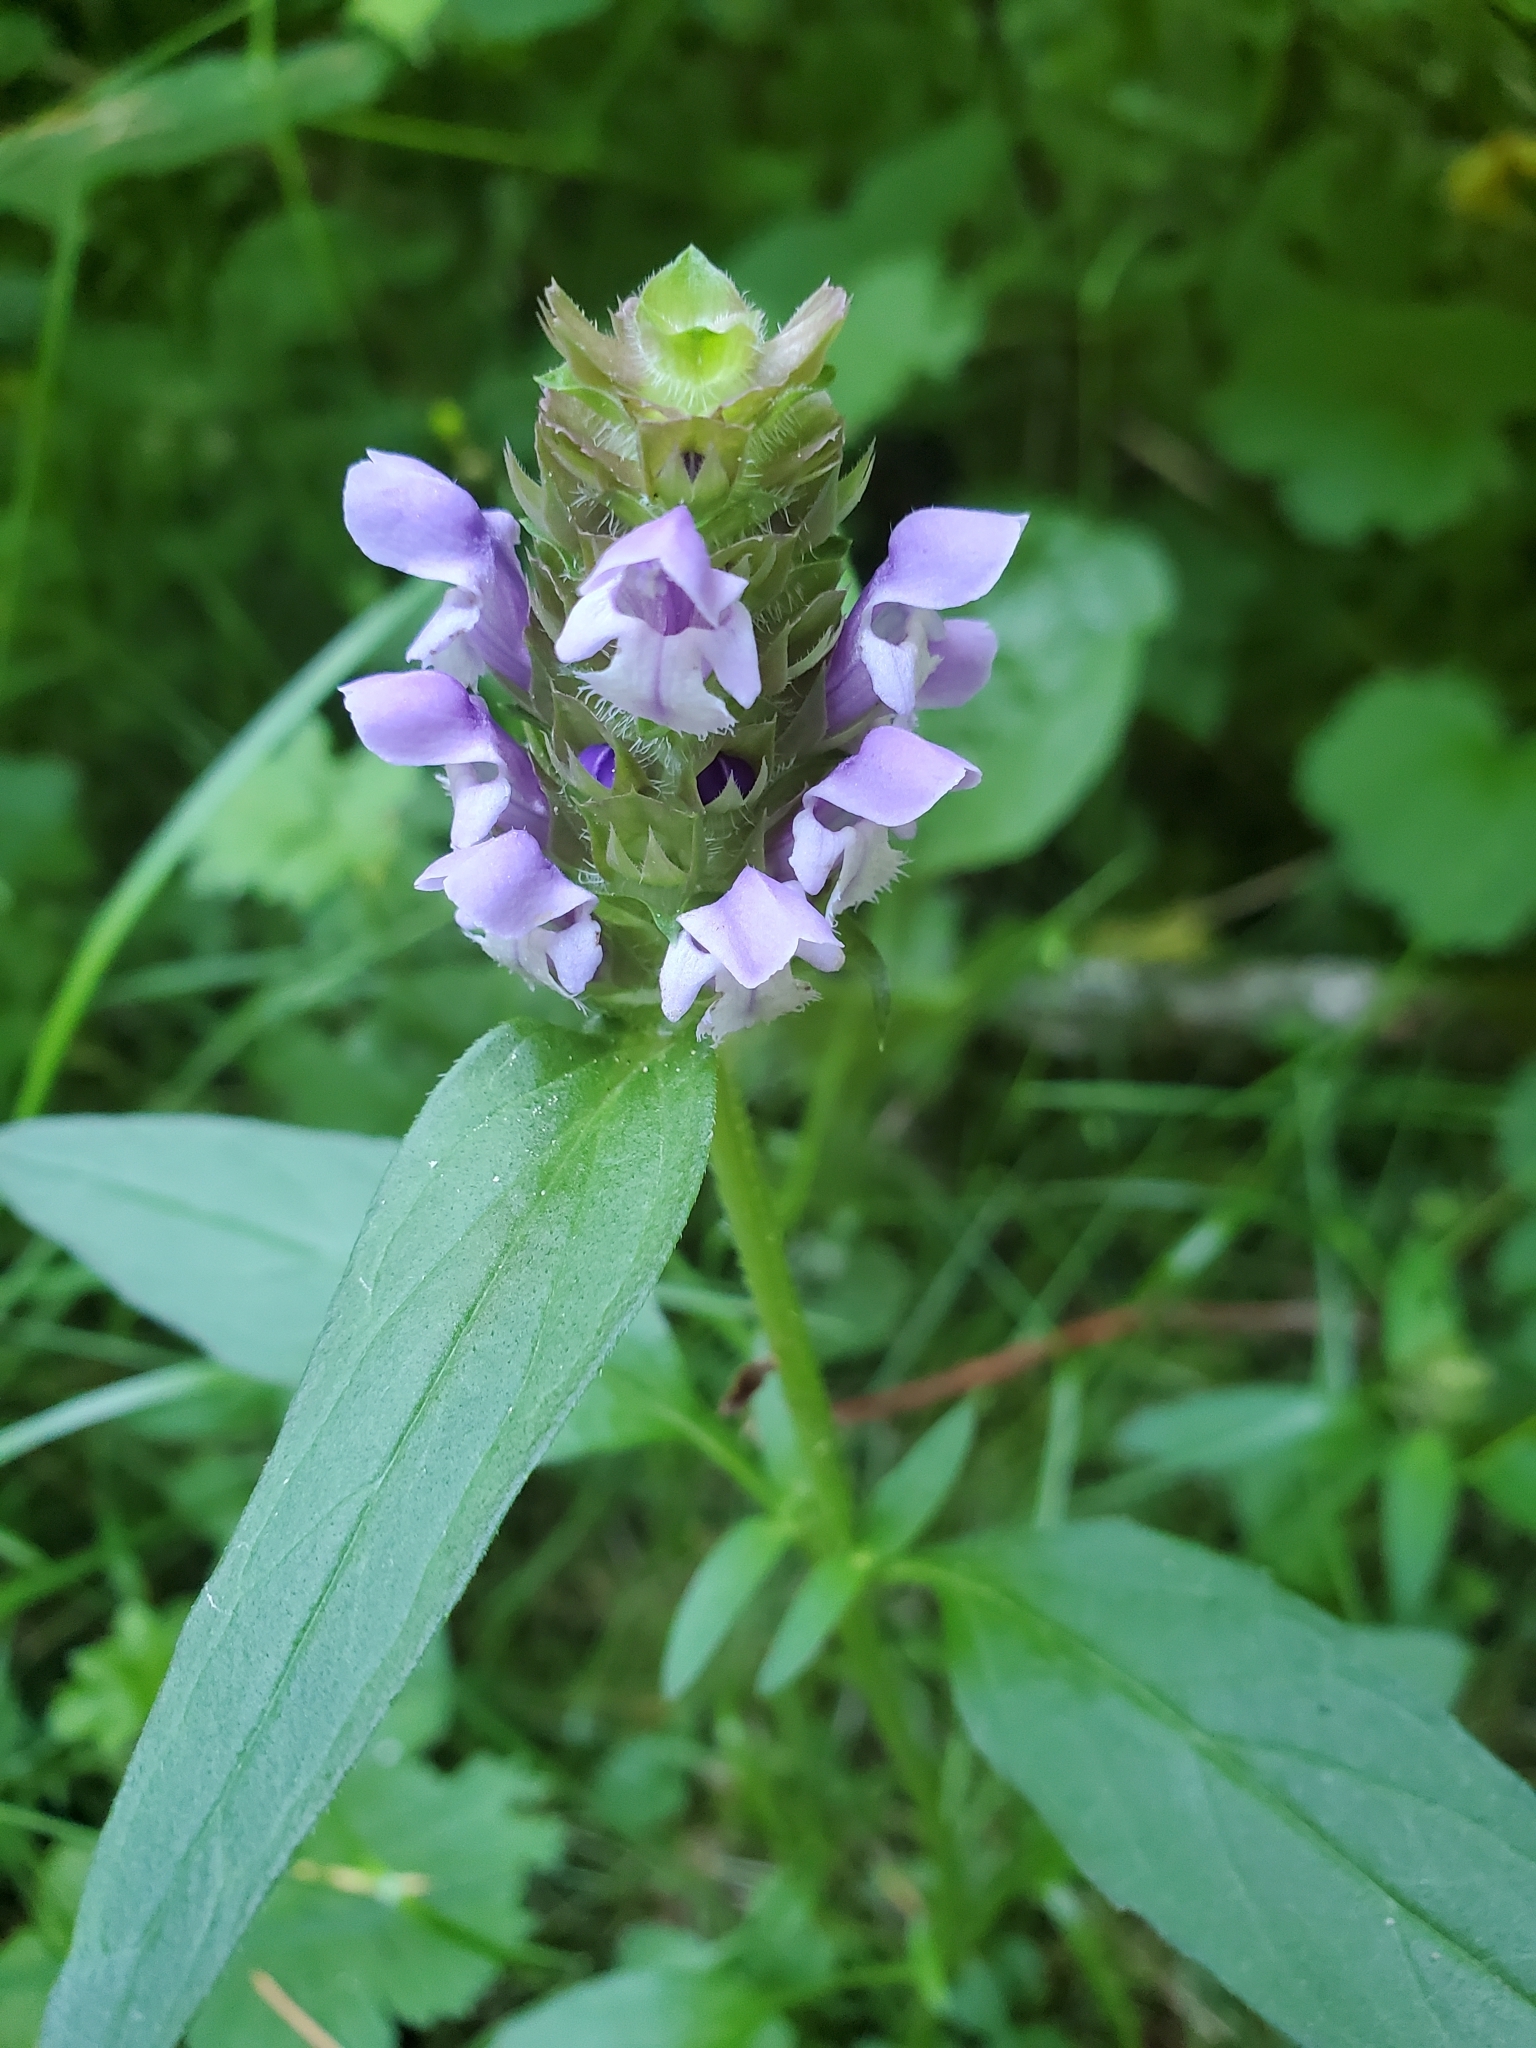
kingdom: Plantae
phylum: Tracheophyta
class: Magnoliopsida
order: Lamiales
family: Lamiaceae
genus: Prunella
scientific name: Prunella vulgaris
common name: Heal-all
